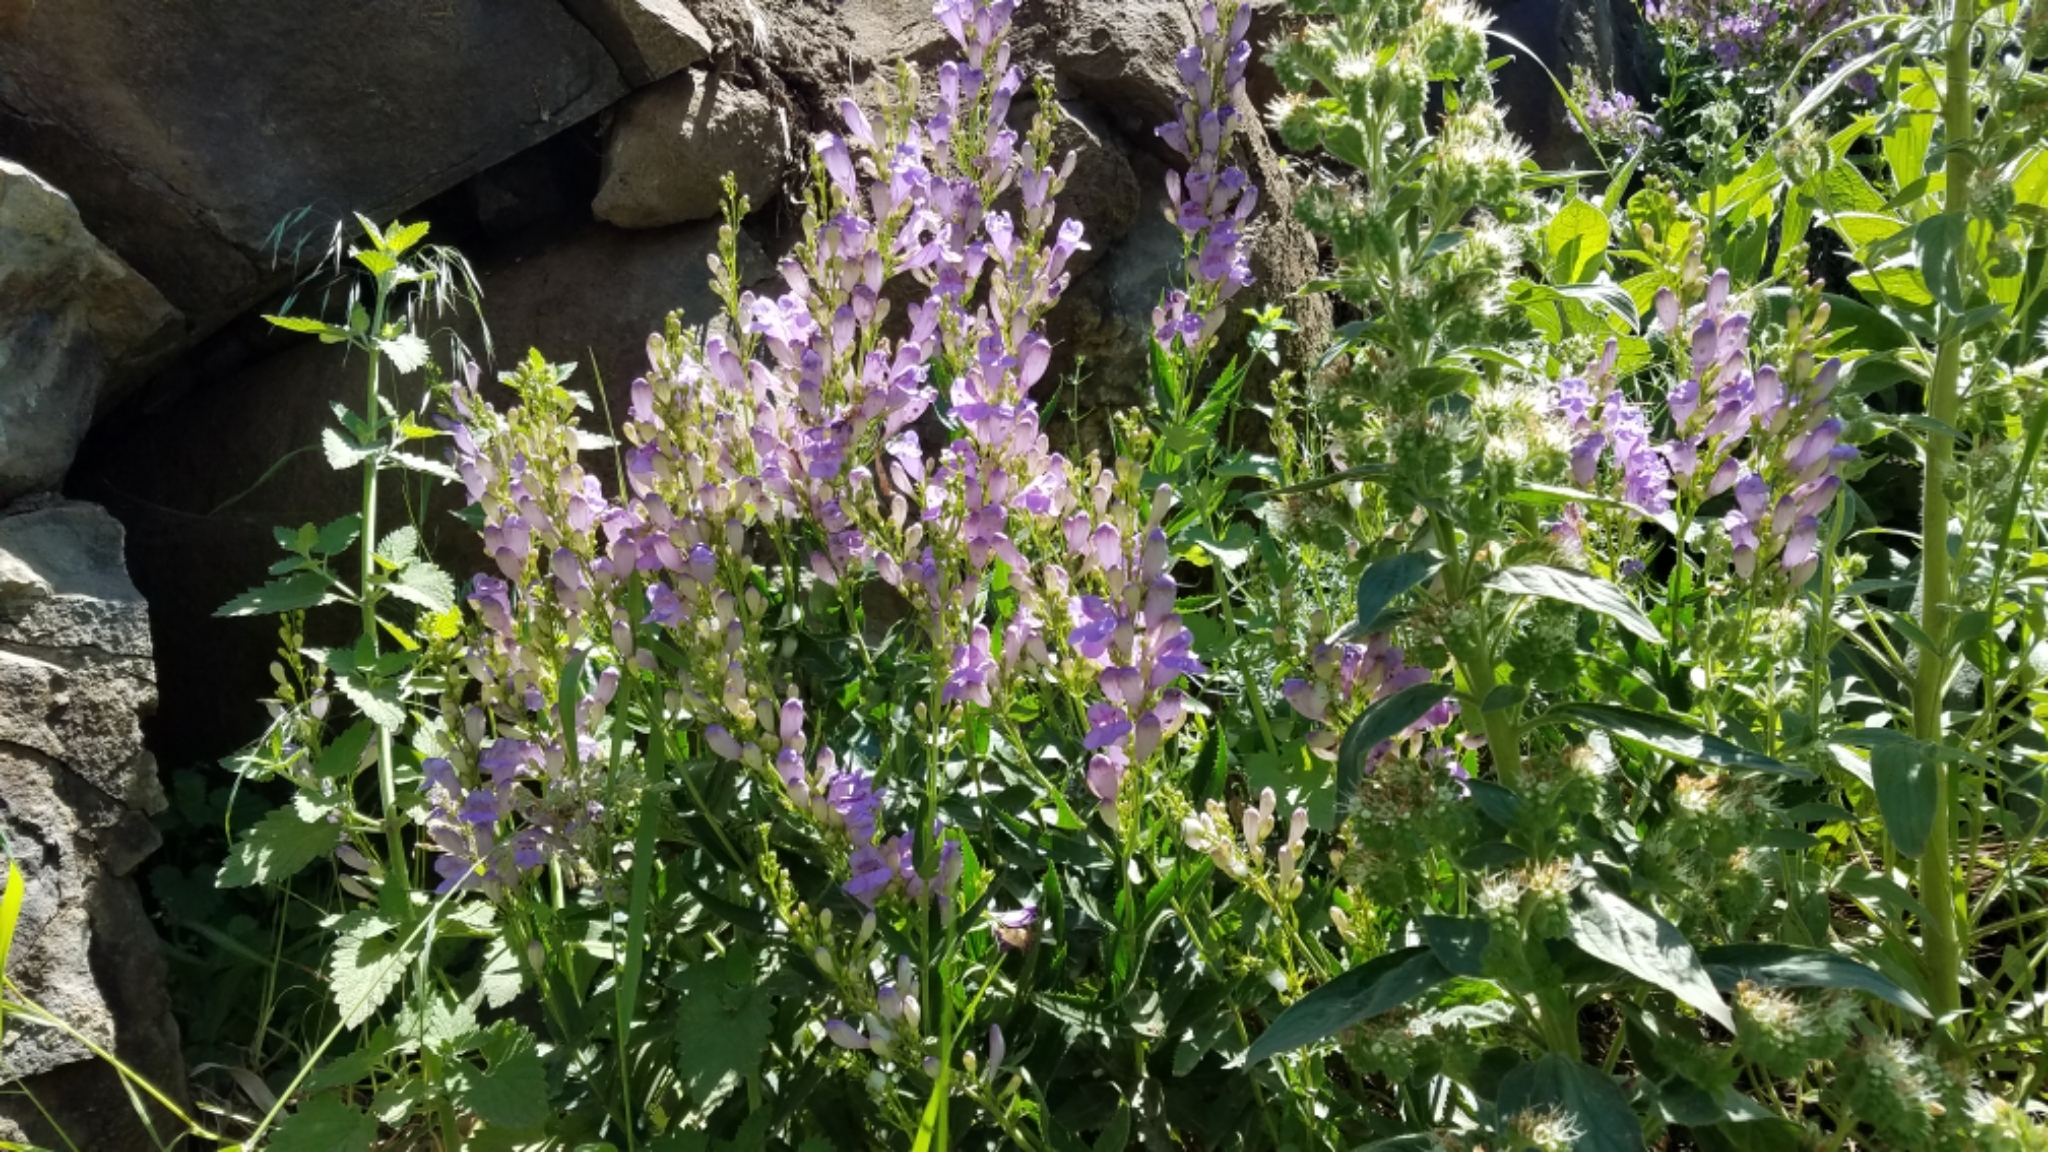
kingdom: Plantae
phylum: Tracheophyta
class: Magnoliopsida
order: Lamiales
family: Plantaginaceae
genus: Penstemon
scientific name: Penstemon venustus
